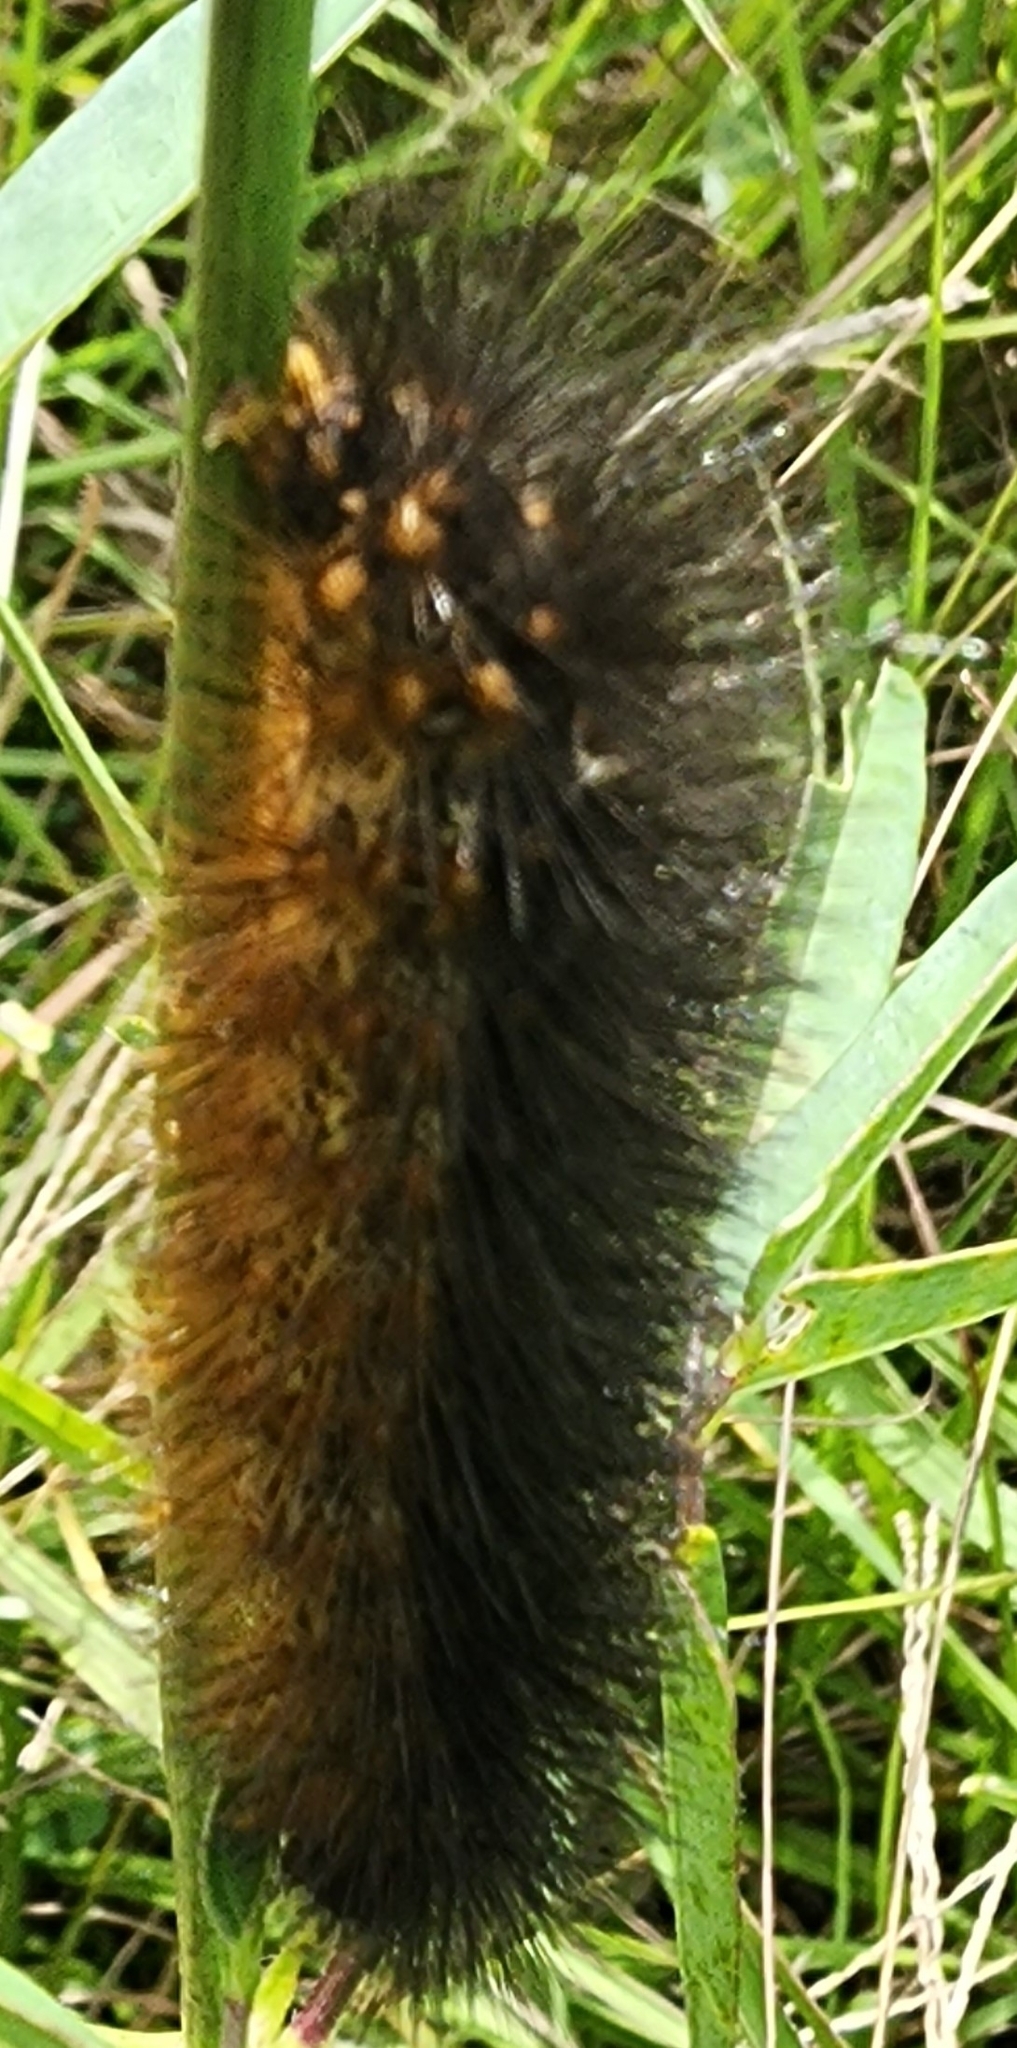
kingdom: Animalia
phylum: Arthropoda
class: Insecta
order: Lepidoptera
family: Erebidae
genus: Estigmene
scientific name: Estigmene acrea
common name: Salt marsh moth
